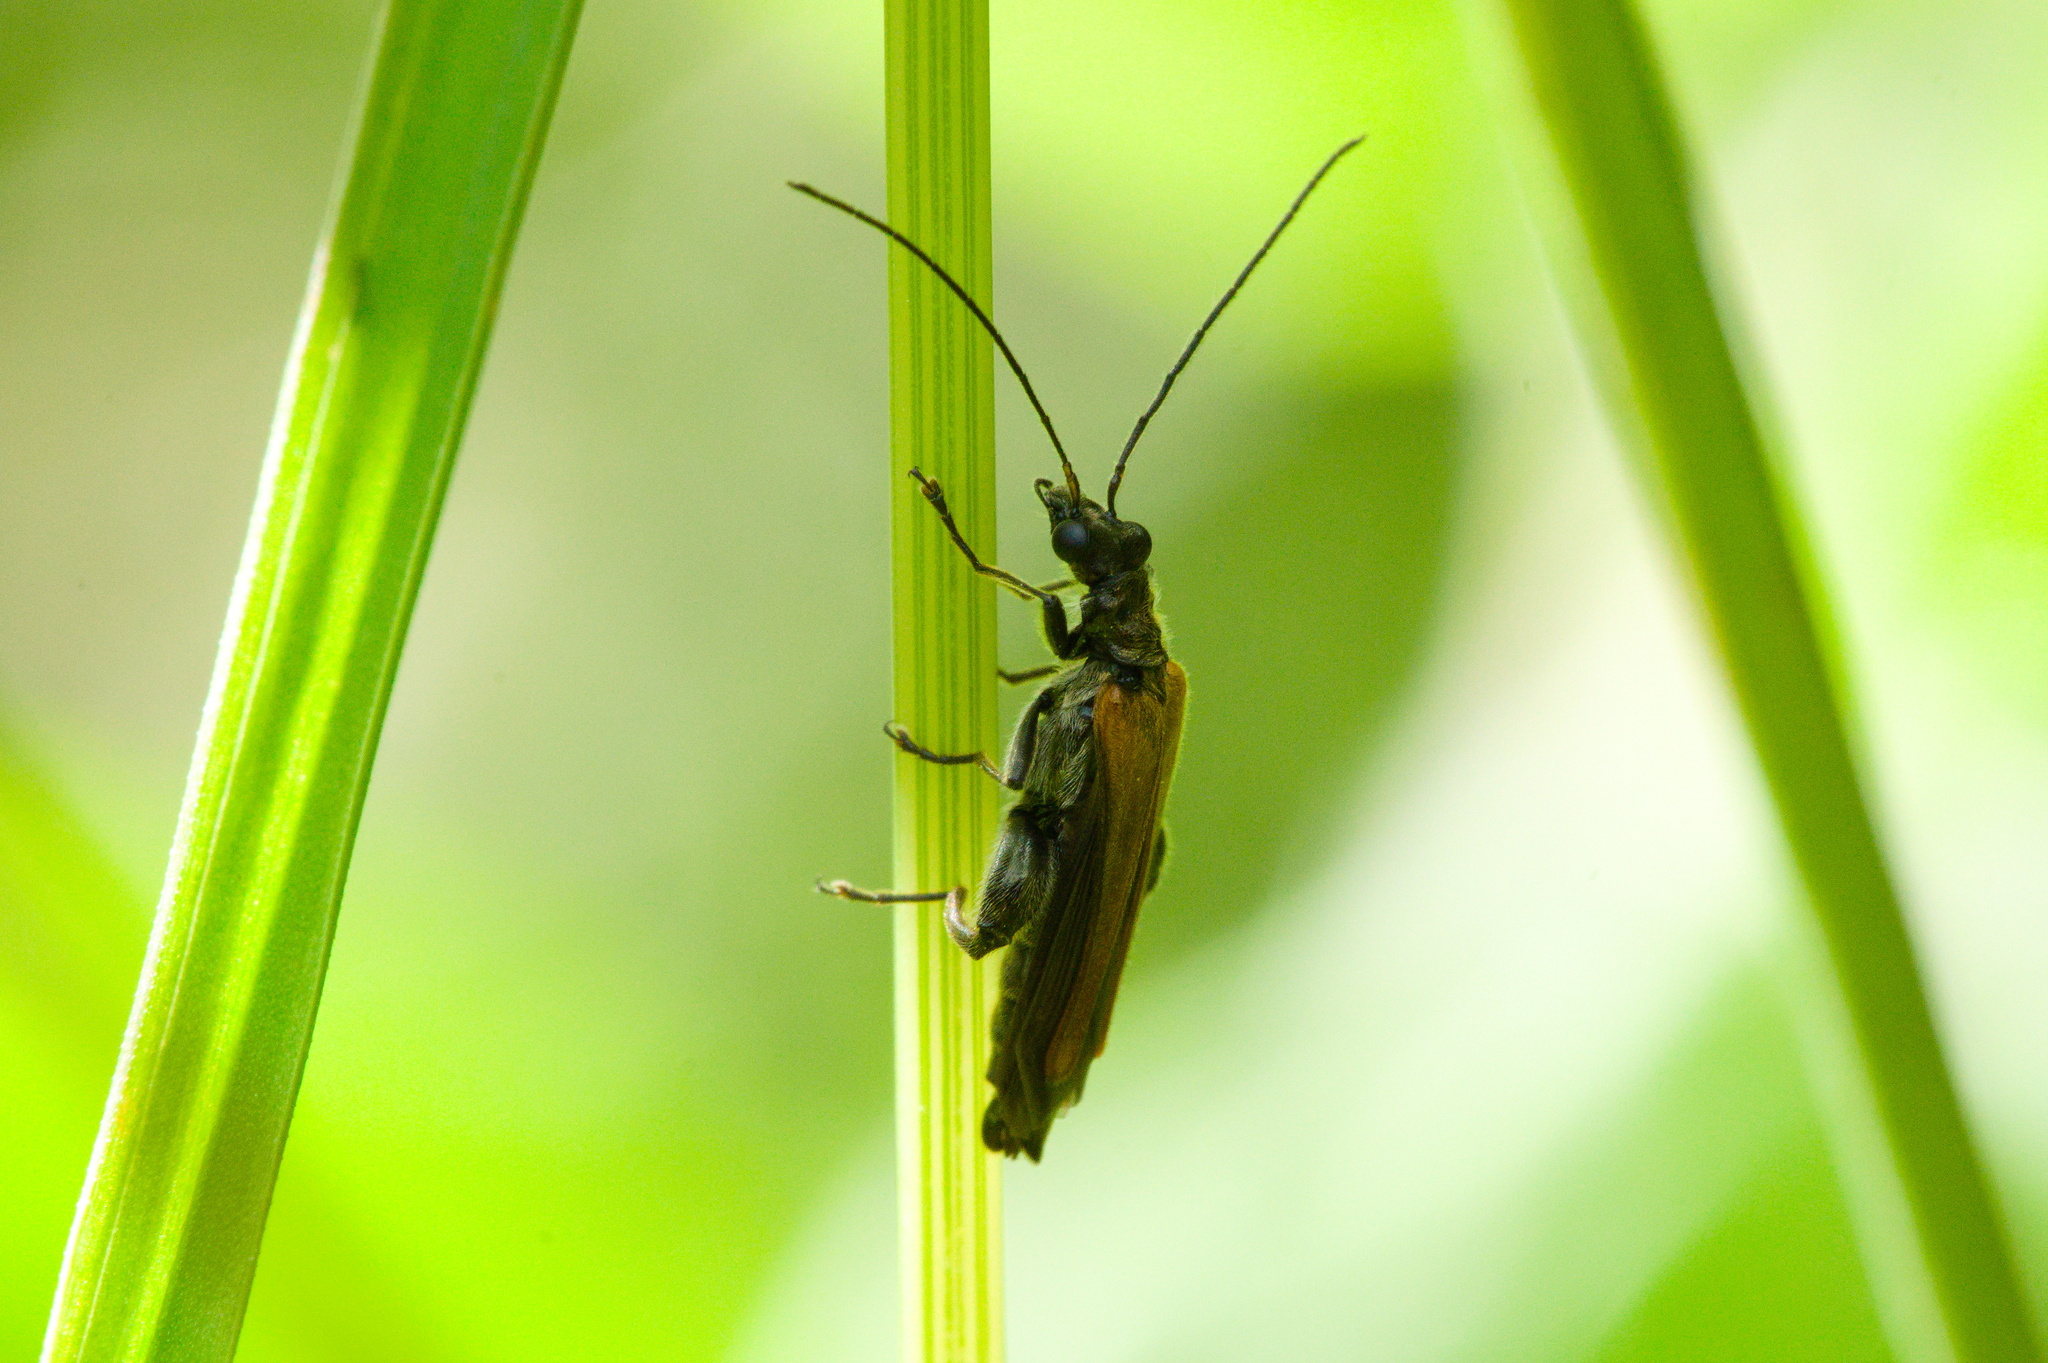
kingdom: Animalia
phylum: Arthropoda
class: Insecta
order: Coleoptera
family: Oedemeridae
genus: Oedemera
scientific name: Oedemera femorata
